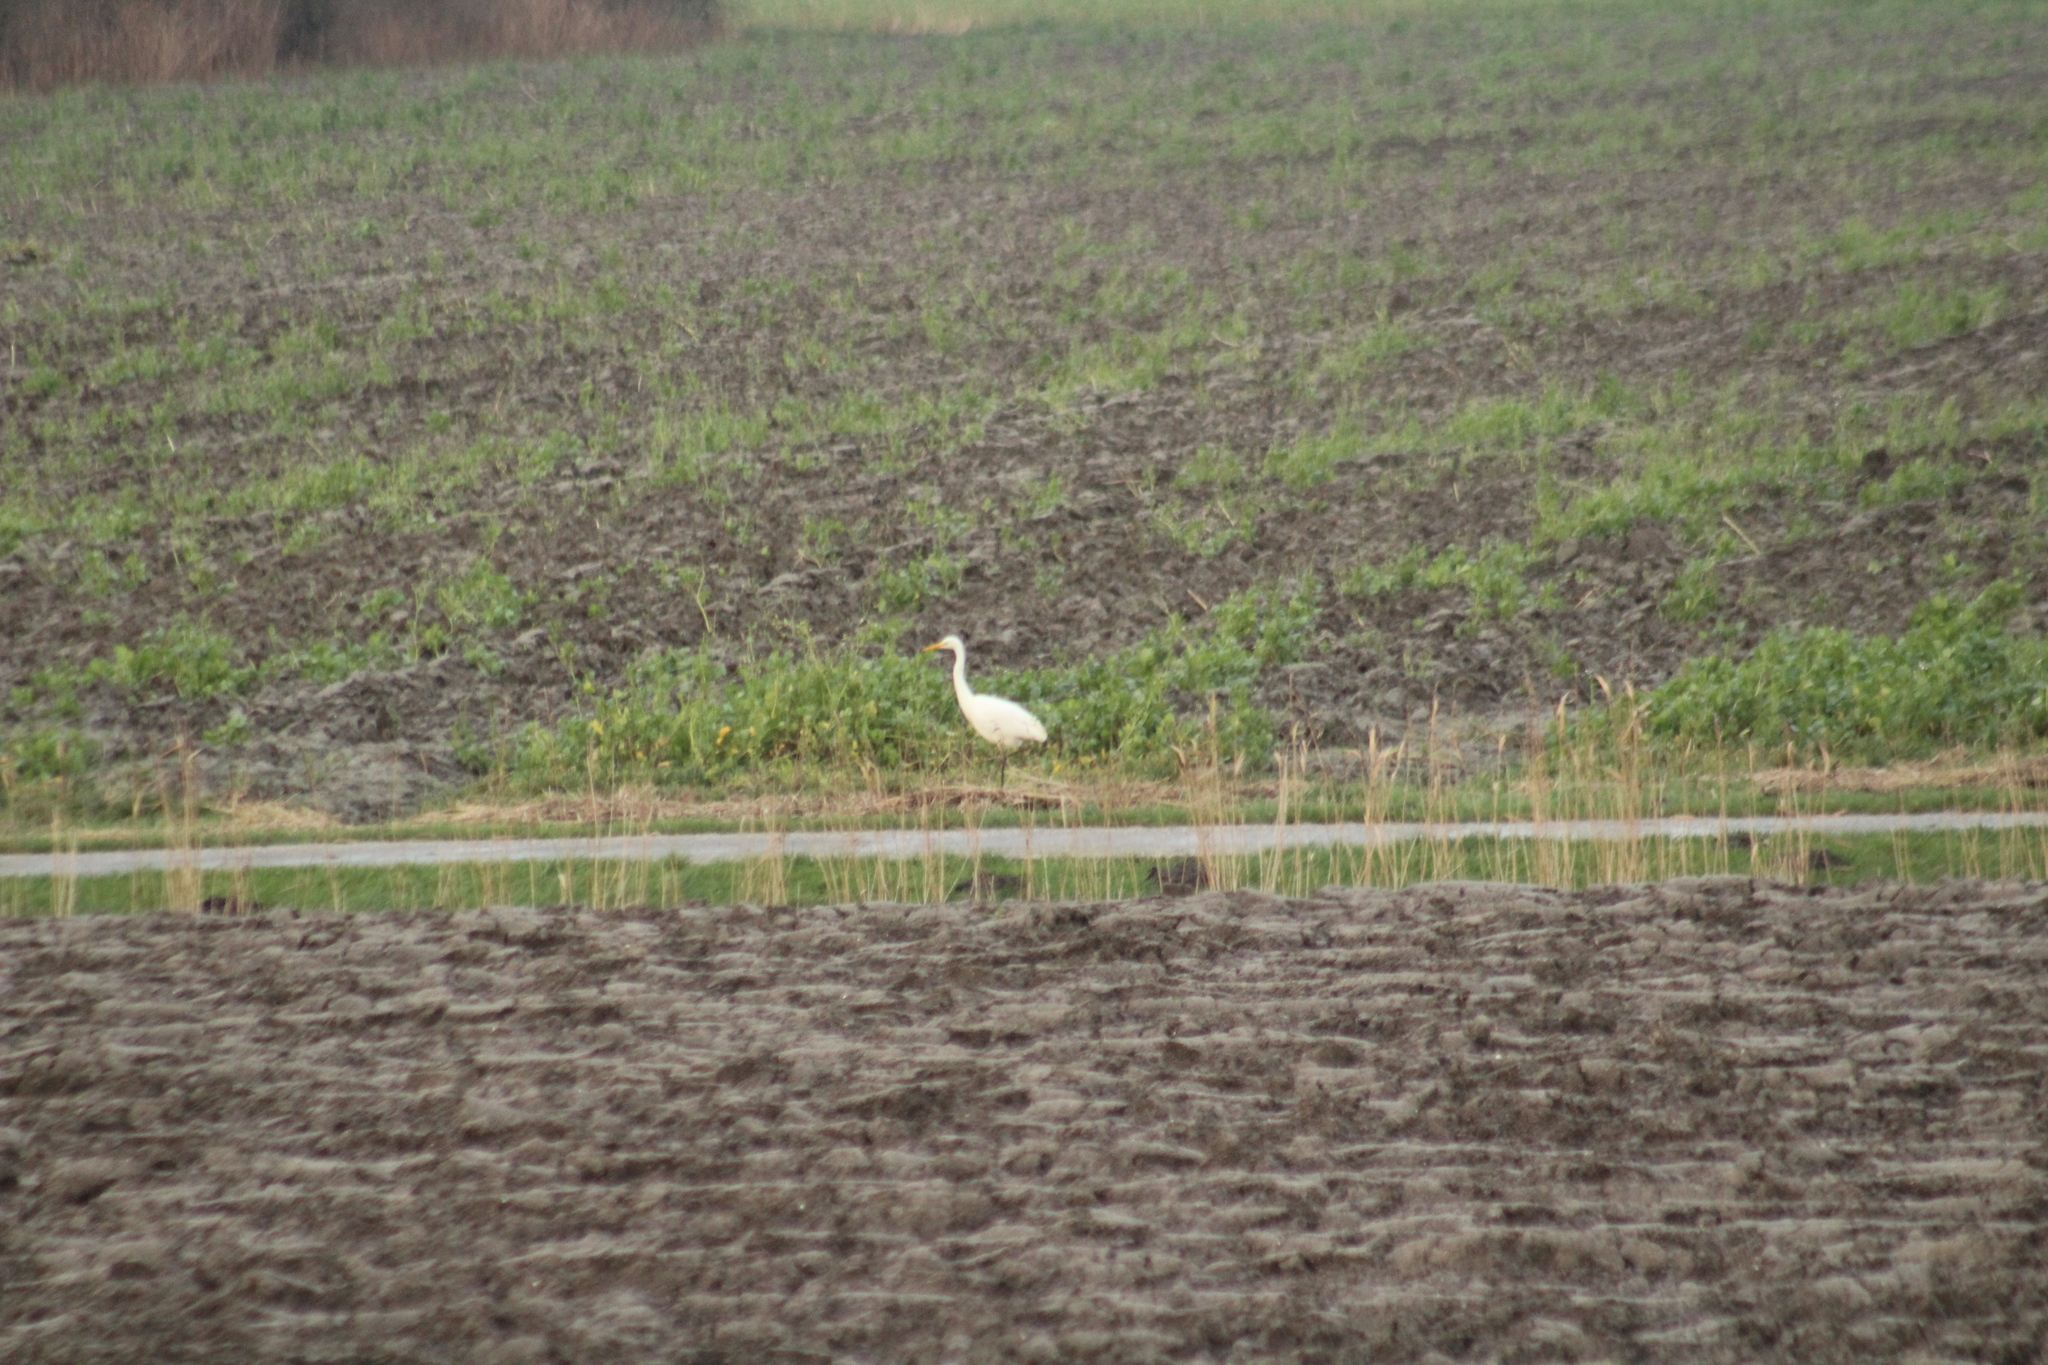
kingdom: Animalia
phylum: Chordata
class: Aves
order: Pelecaniformes
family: Ardeidae
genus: Ardea
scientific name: Ardea alba
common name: Great egret
